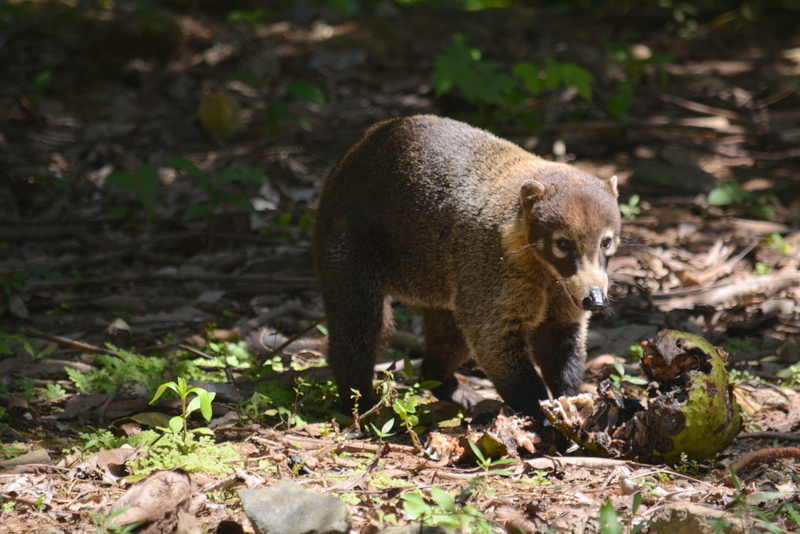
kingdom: Animalia
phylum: Chordata
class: Mammalia
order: Carnivora
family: Procyonidae
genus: Nasua
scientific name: Nasua narica
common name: White-nosed coati
